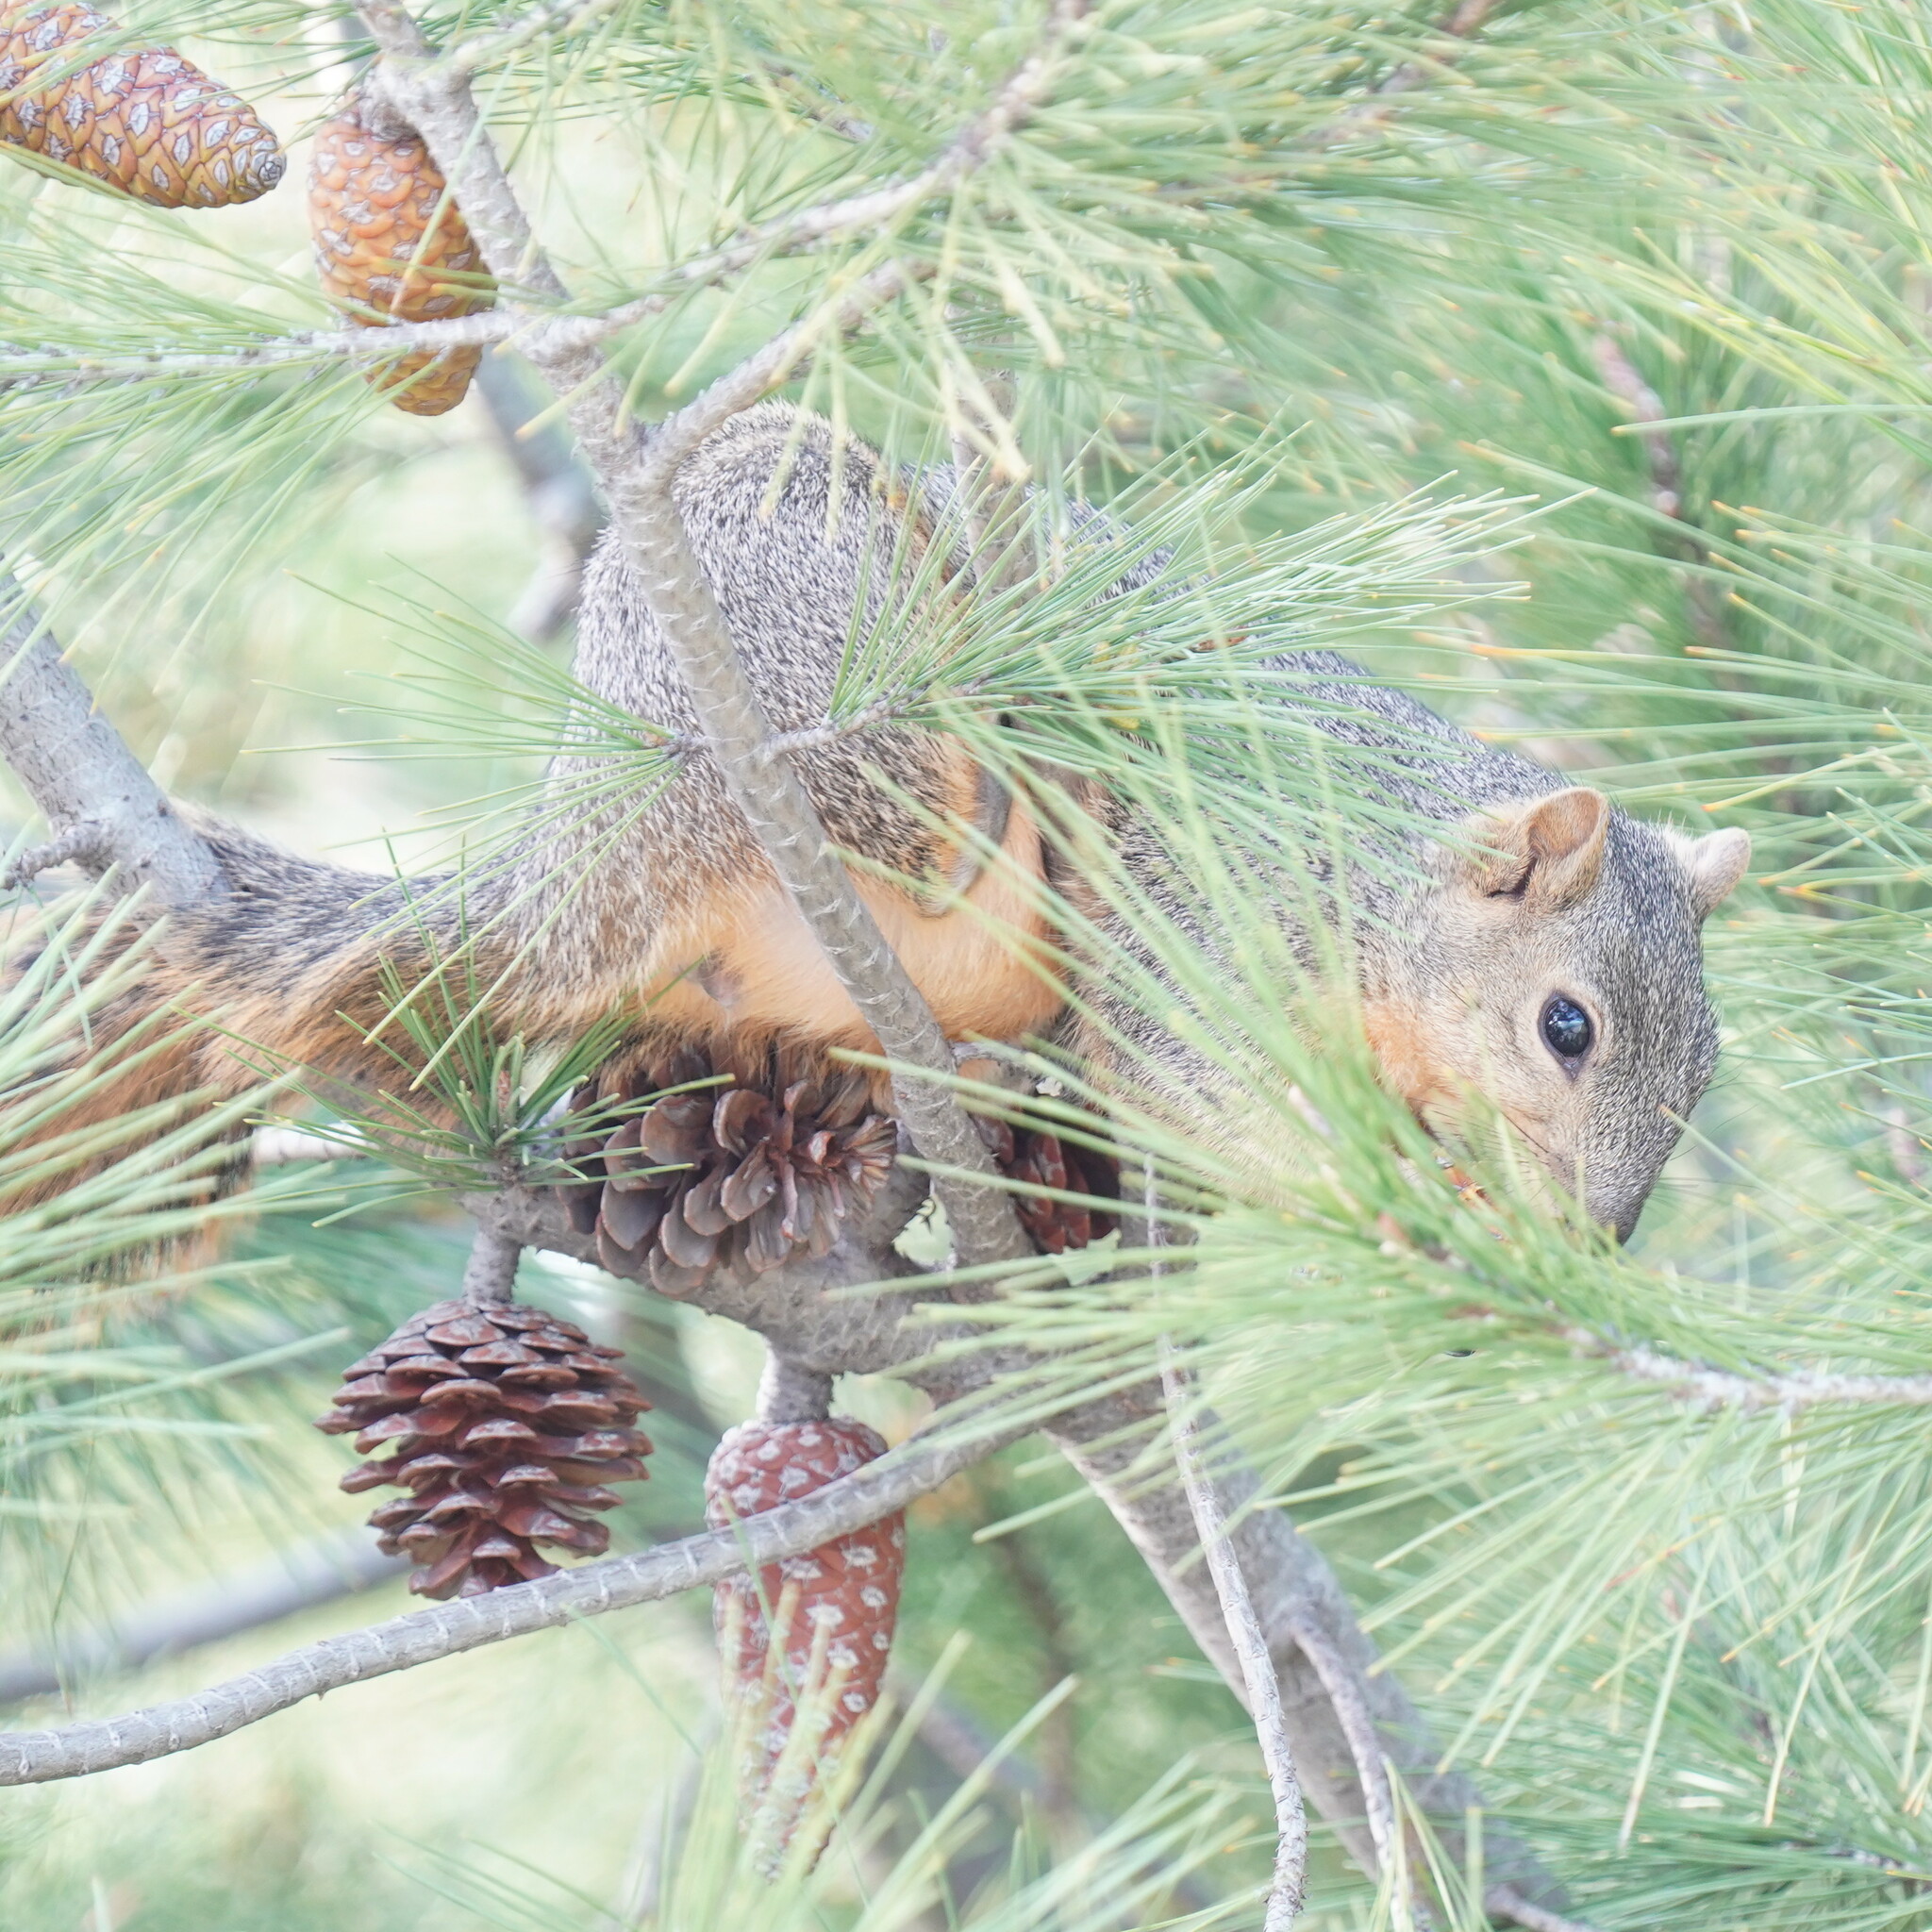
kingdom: Animalia
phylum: Chordata
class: Mammalia
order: Rodentia
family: Sciuridae
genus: Sciurus
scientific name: Sciurus niger
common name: Fox squirrel
